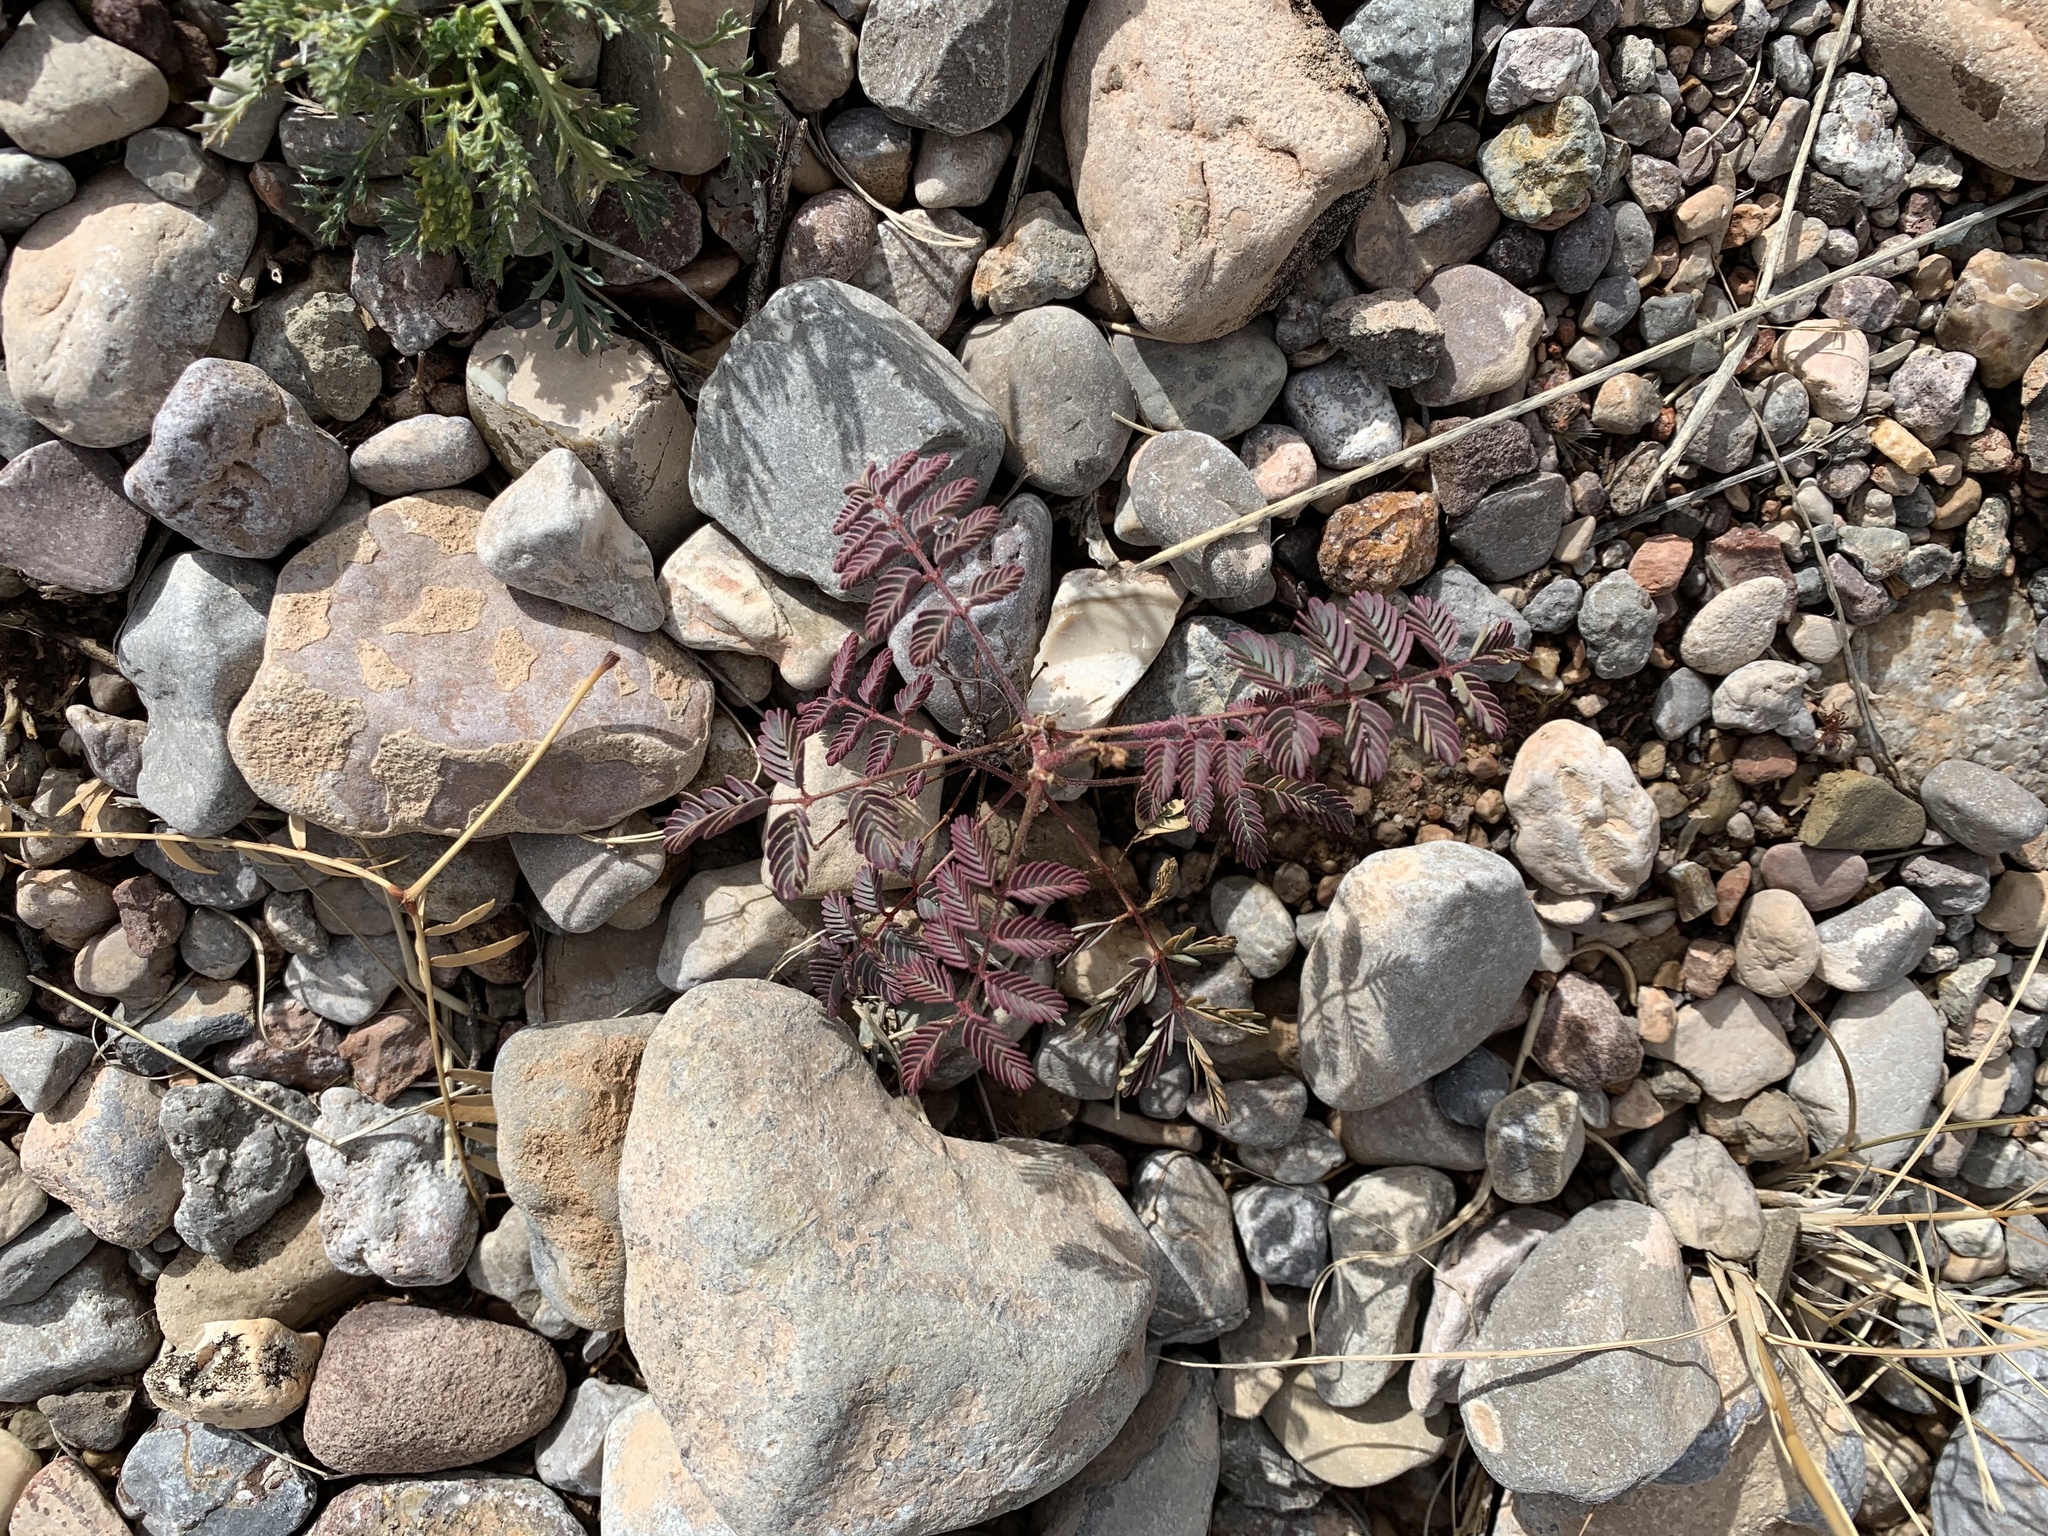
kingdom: Plantae
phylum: Tracheophyta
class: Magnoliopsida
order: Fabales
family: Fabaceae
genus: Hoffmannseggia
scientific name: Hoffmannseggia glauca
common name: Pignut
